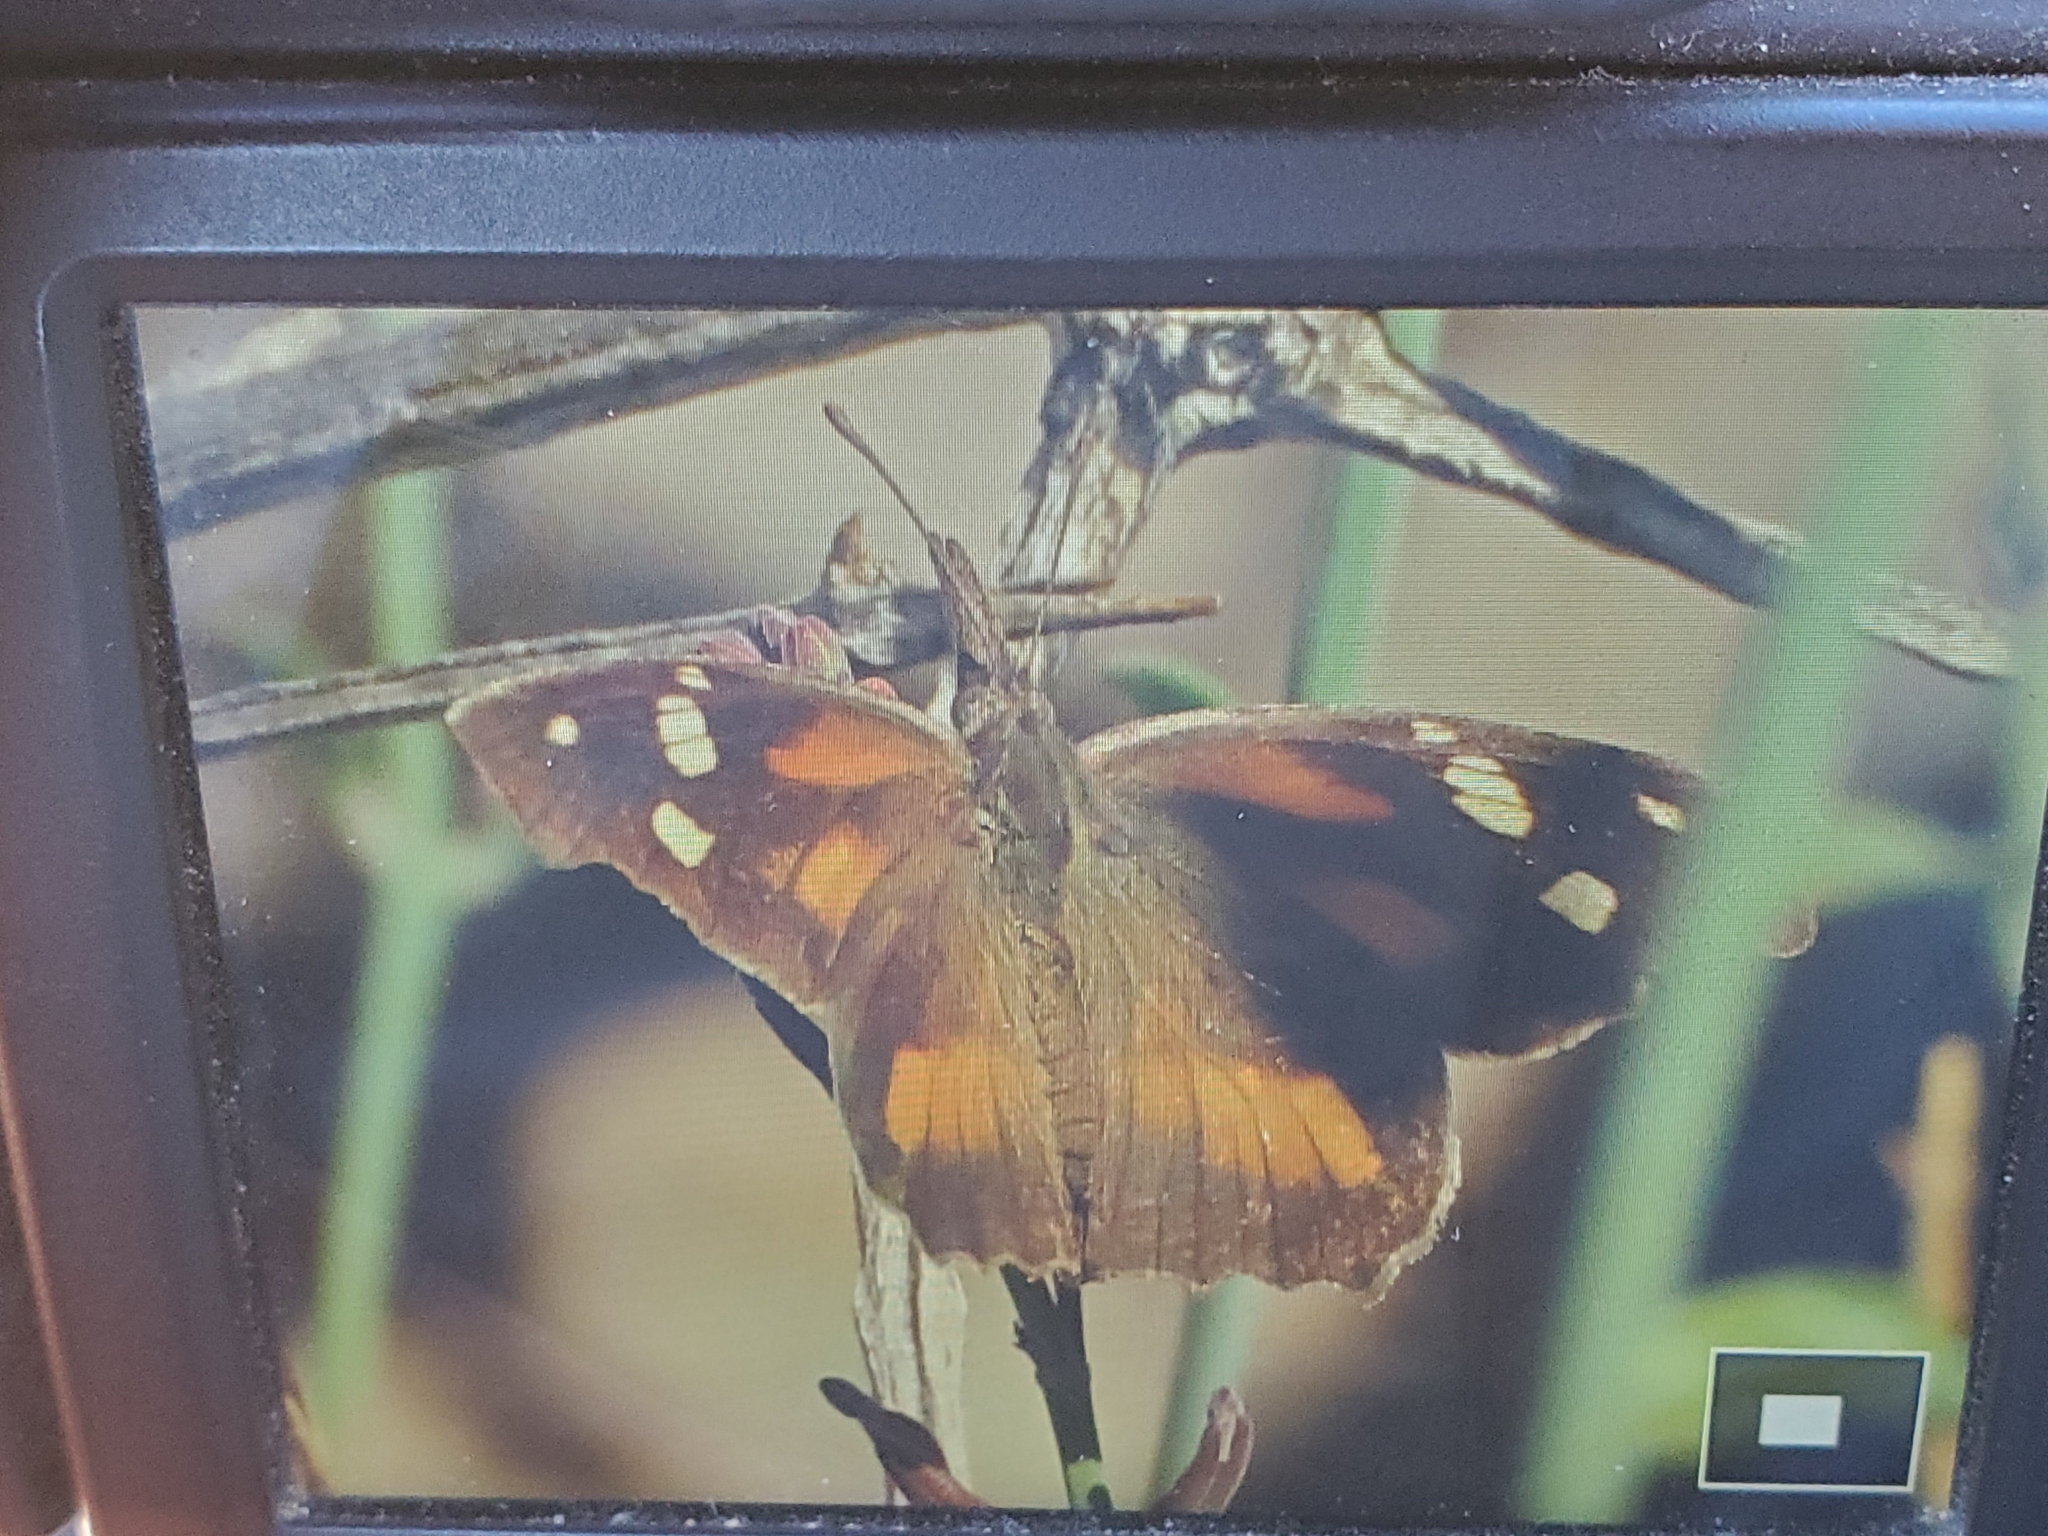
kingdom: Animalia
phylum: Arthropoda
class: Insecta
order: Lepidoptera
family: Nymphalidae
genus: Libytheana
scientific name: Libytheana carinenta
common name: American snout
